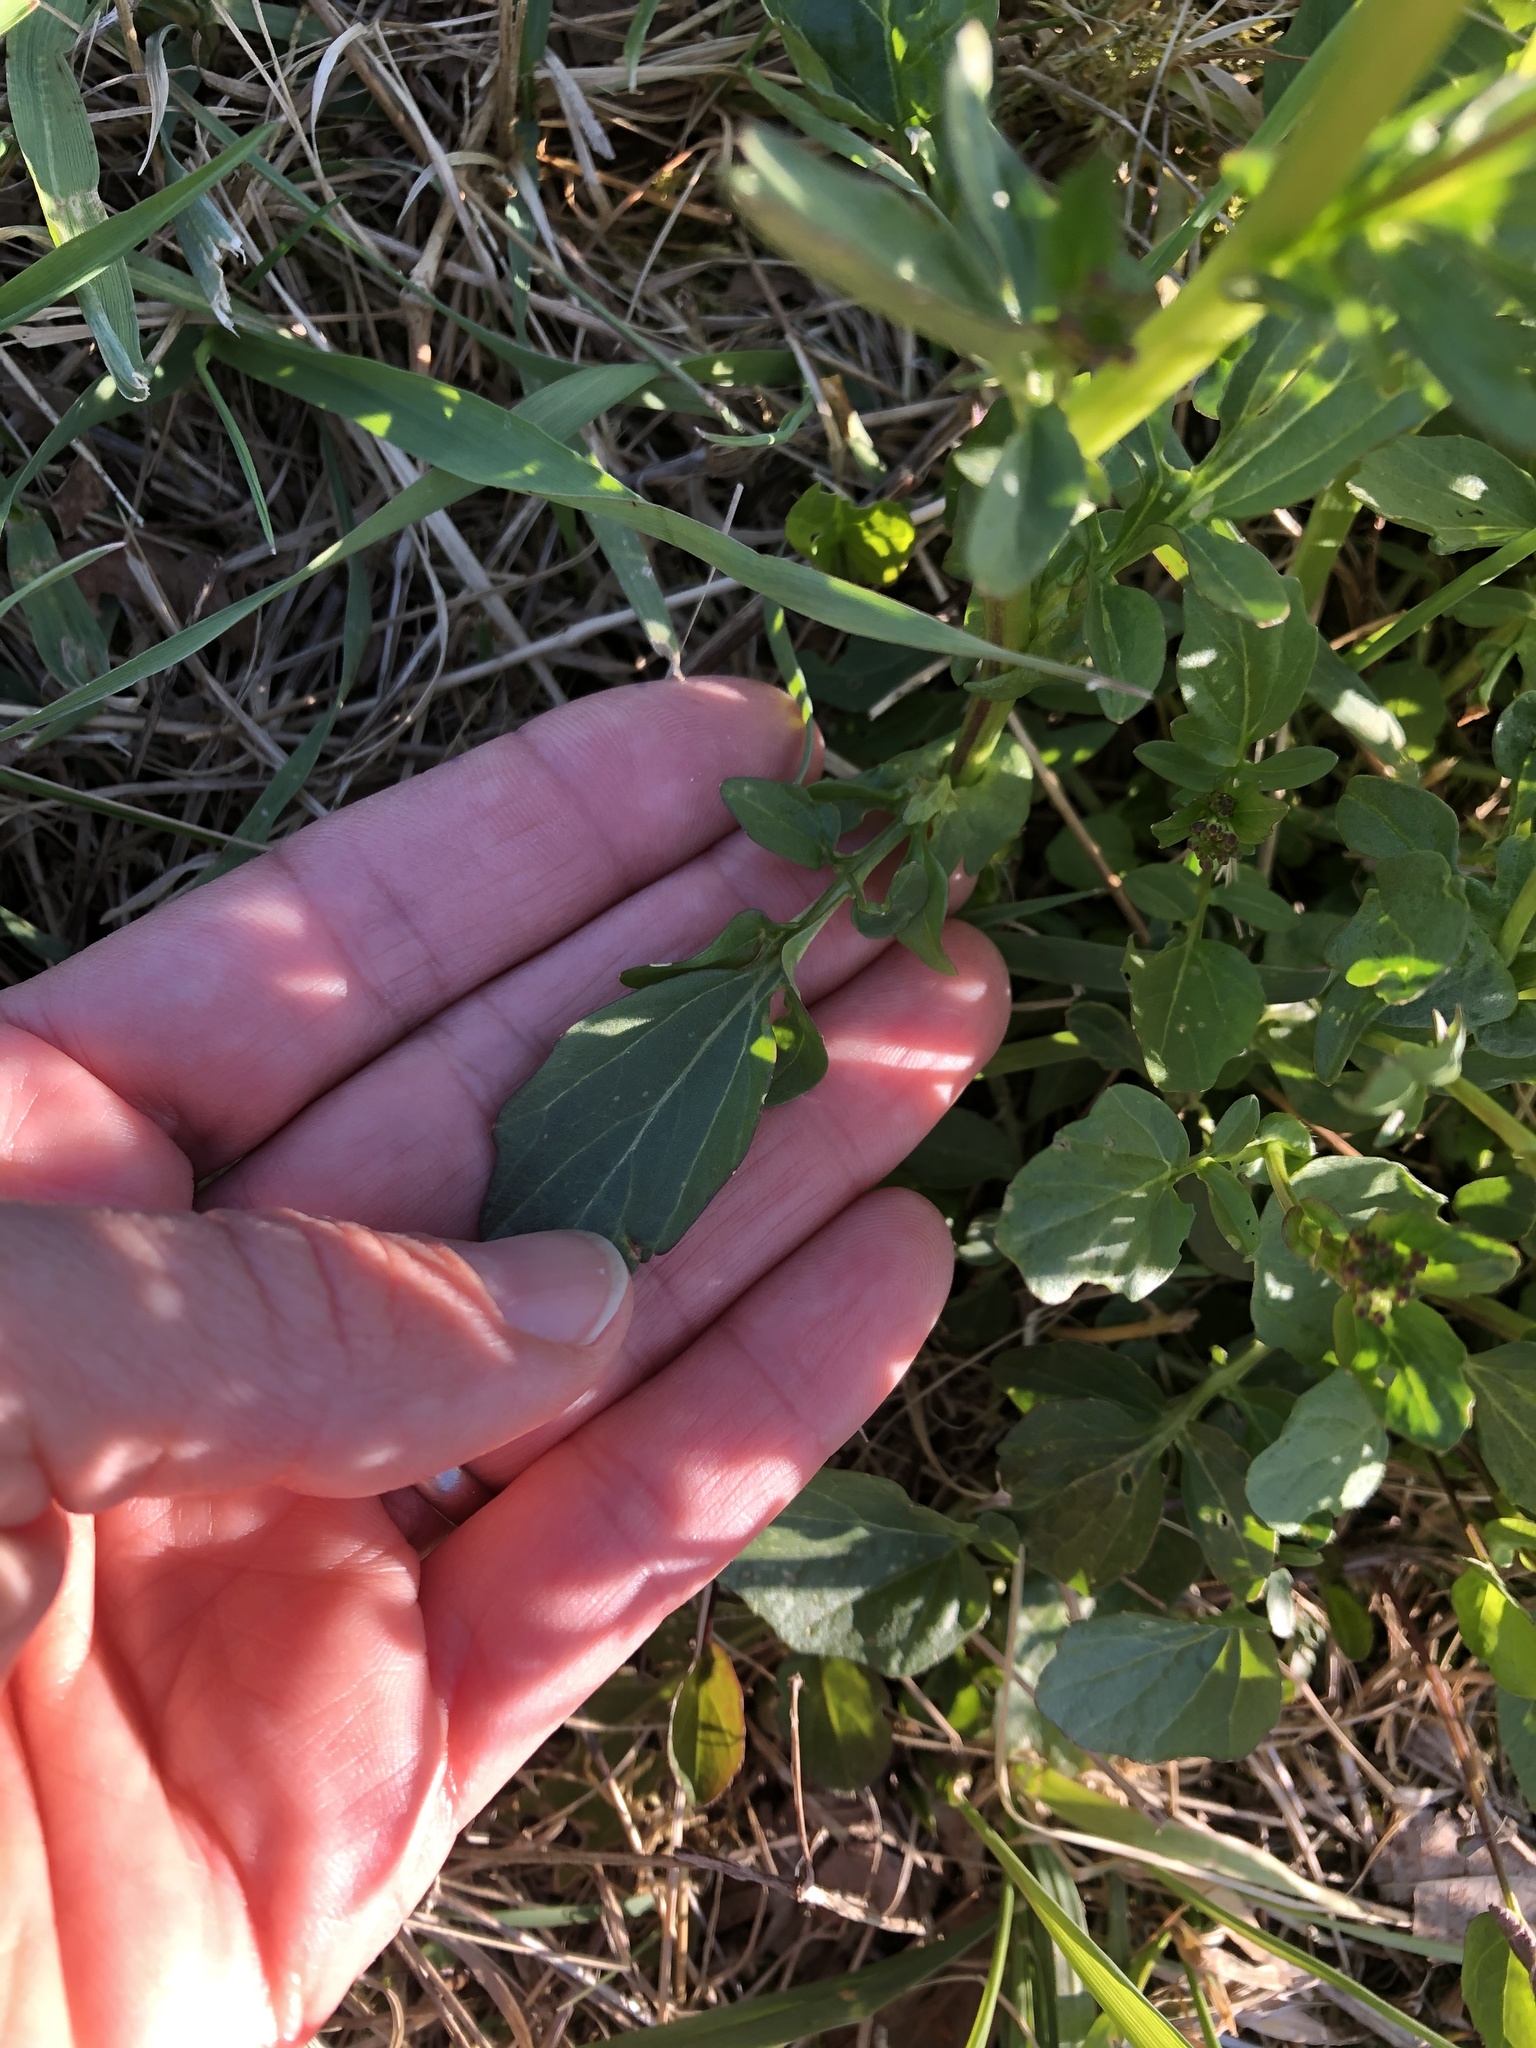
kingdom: Plantae
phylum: Tracheophyta
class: Magnoliopsida
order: Brassicales
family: Brassicaceae
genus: Barbarea
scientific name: Barbarea vulgaris
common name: Cressy-greens
